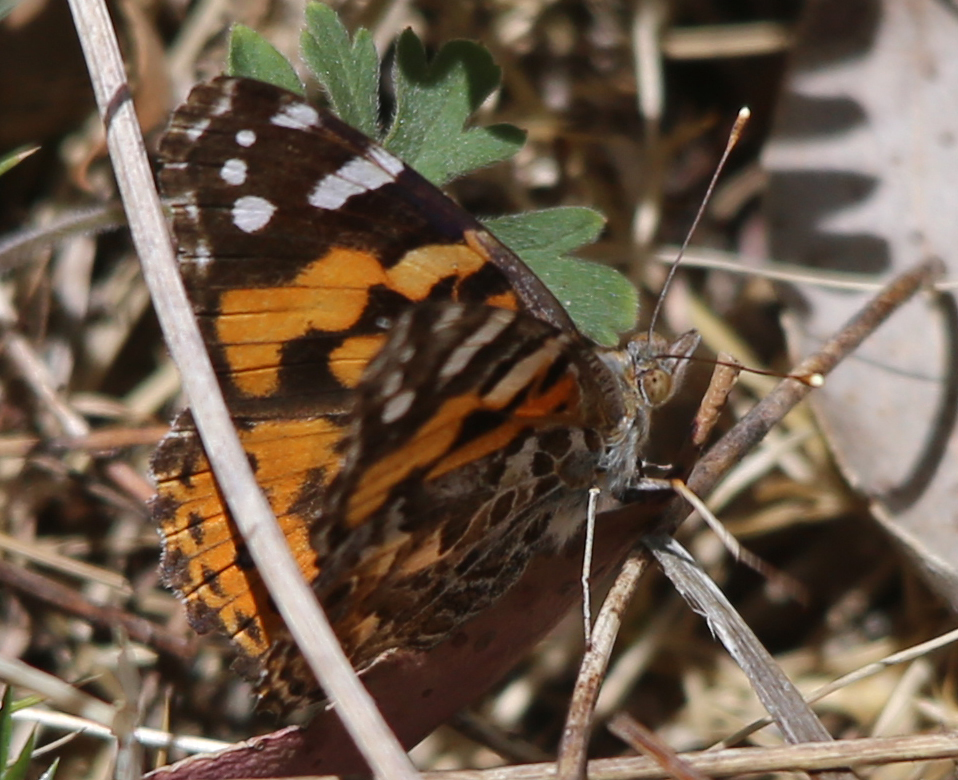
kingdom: Animalia
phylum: Arthropoda
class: Insecta
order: Lepidoptera
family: Nymphalidae
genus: Vanessa
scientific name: Vanessa kershawi
